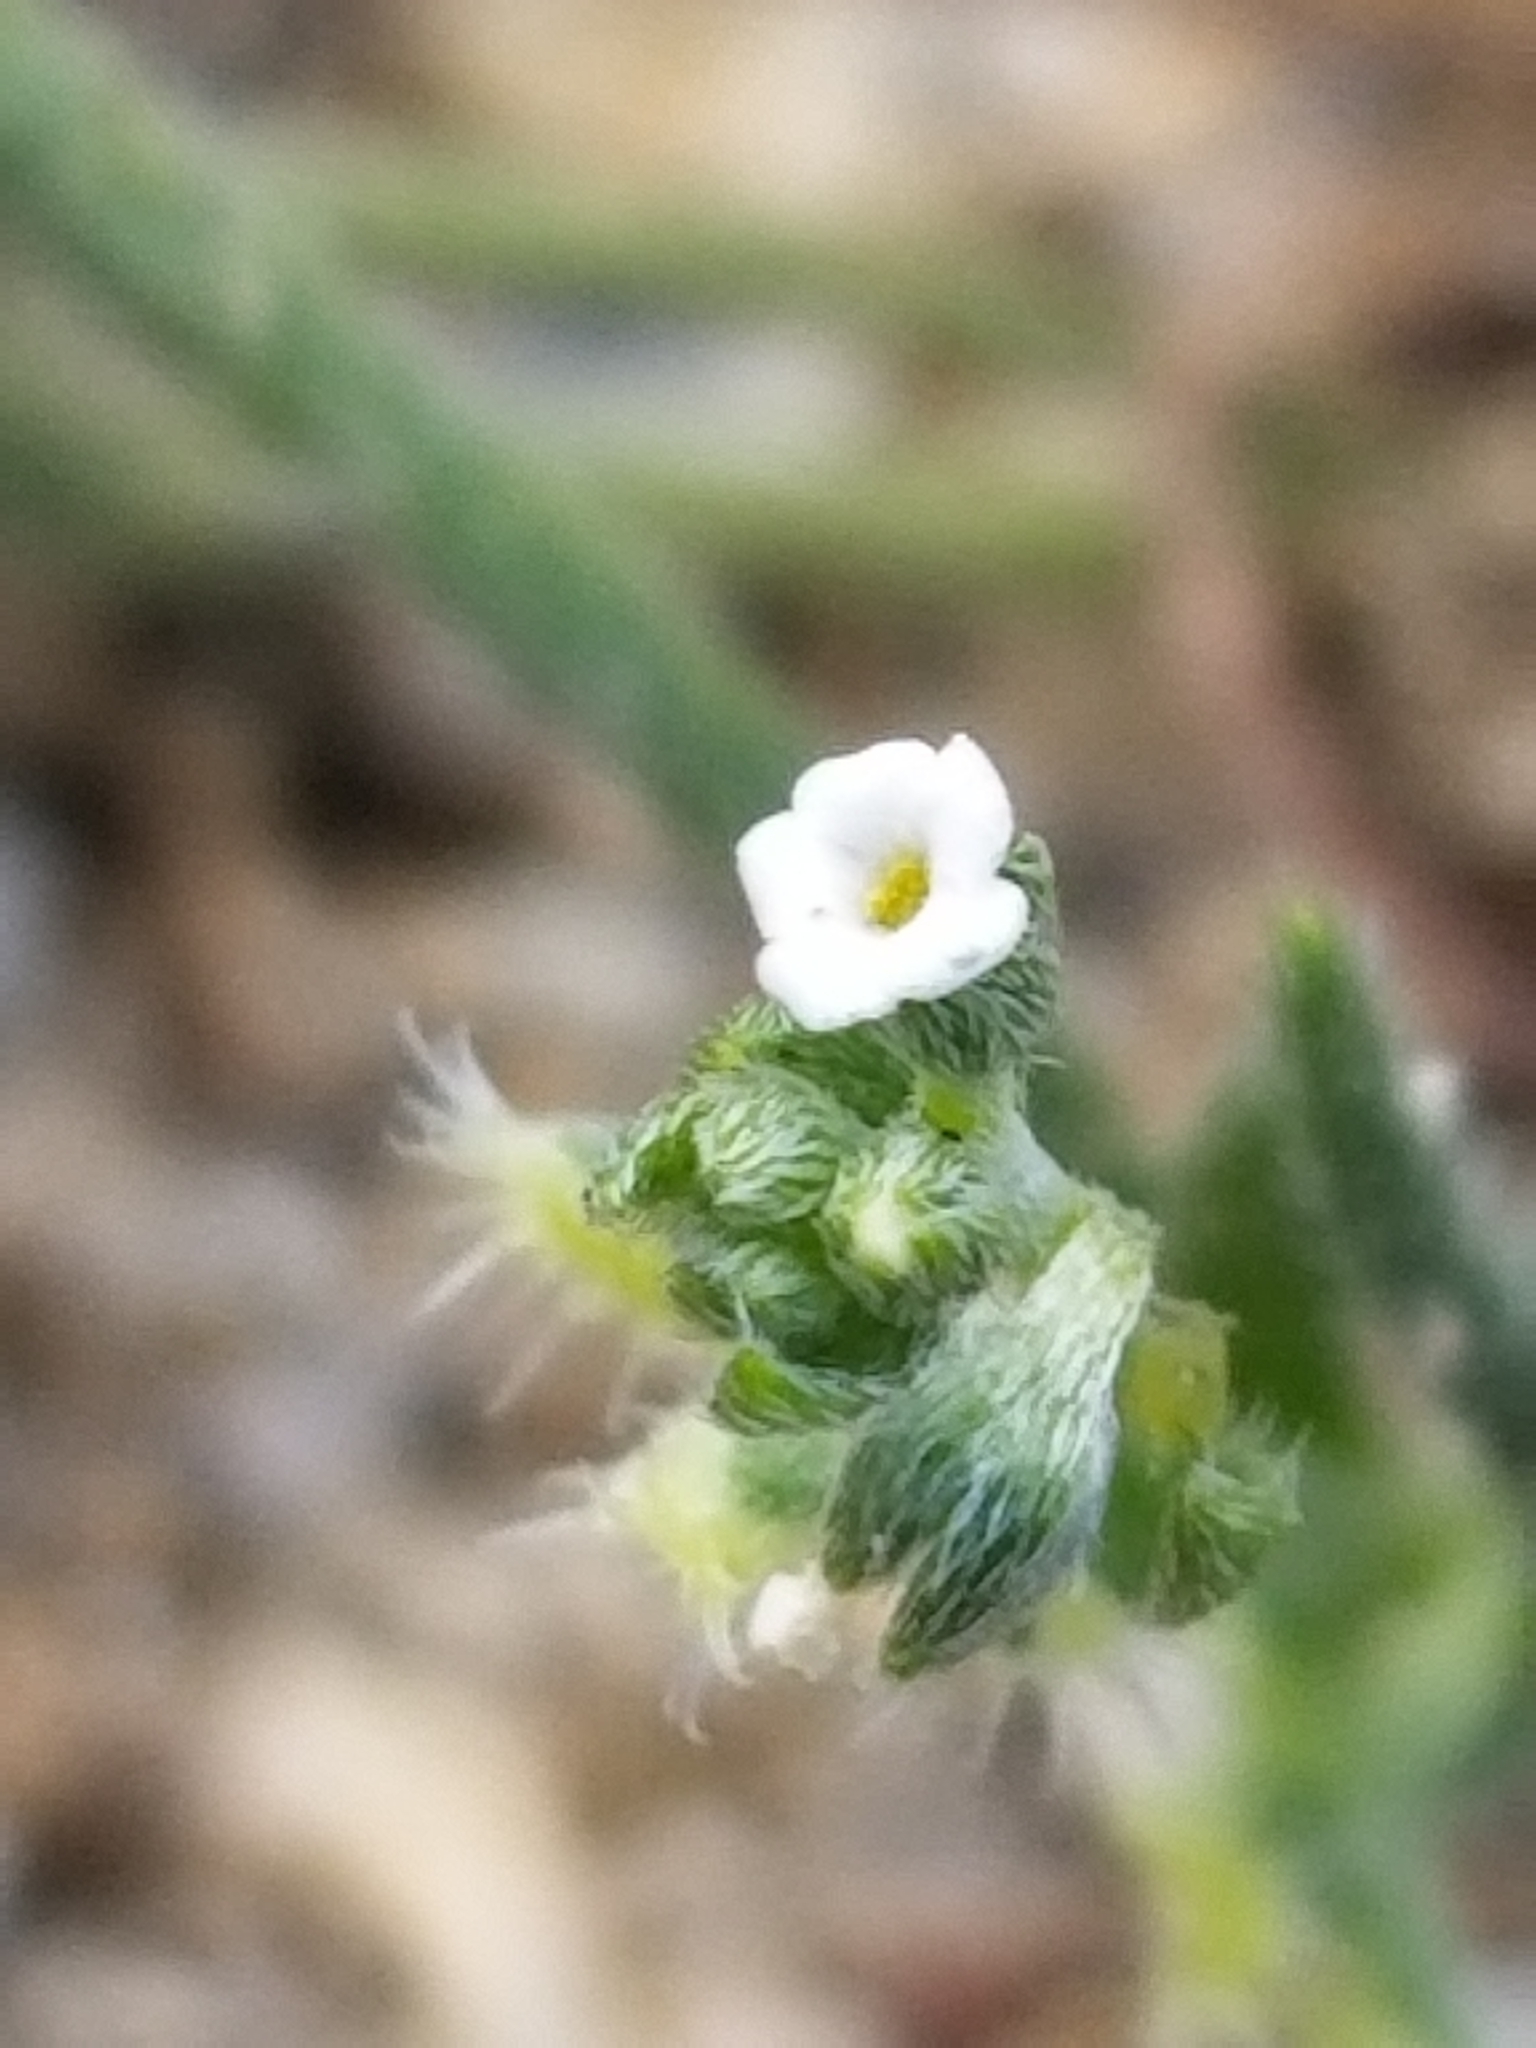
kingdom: Plantae
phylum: Tracheophyta
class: Magnoliopsida
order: Boraginales
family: Boraginaceae
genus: Pectocarya
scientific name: Pectocarya recurvata
